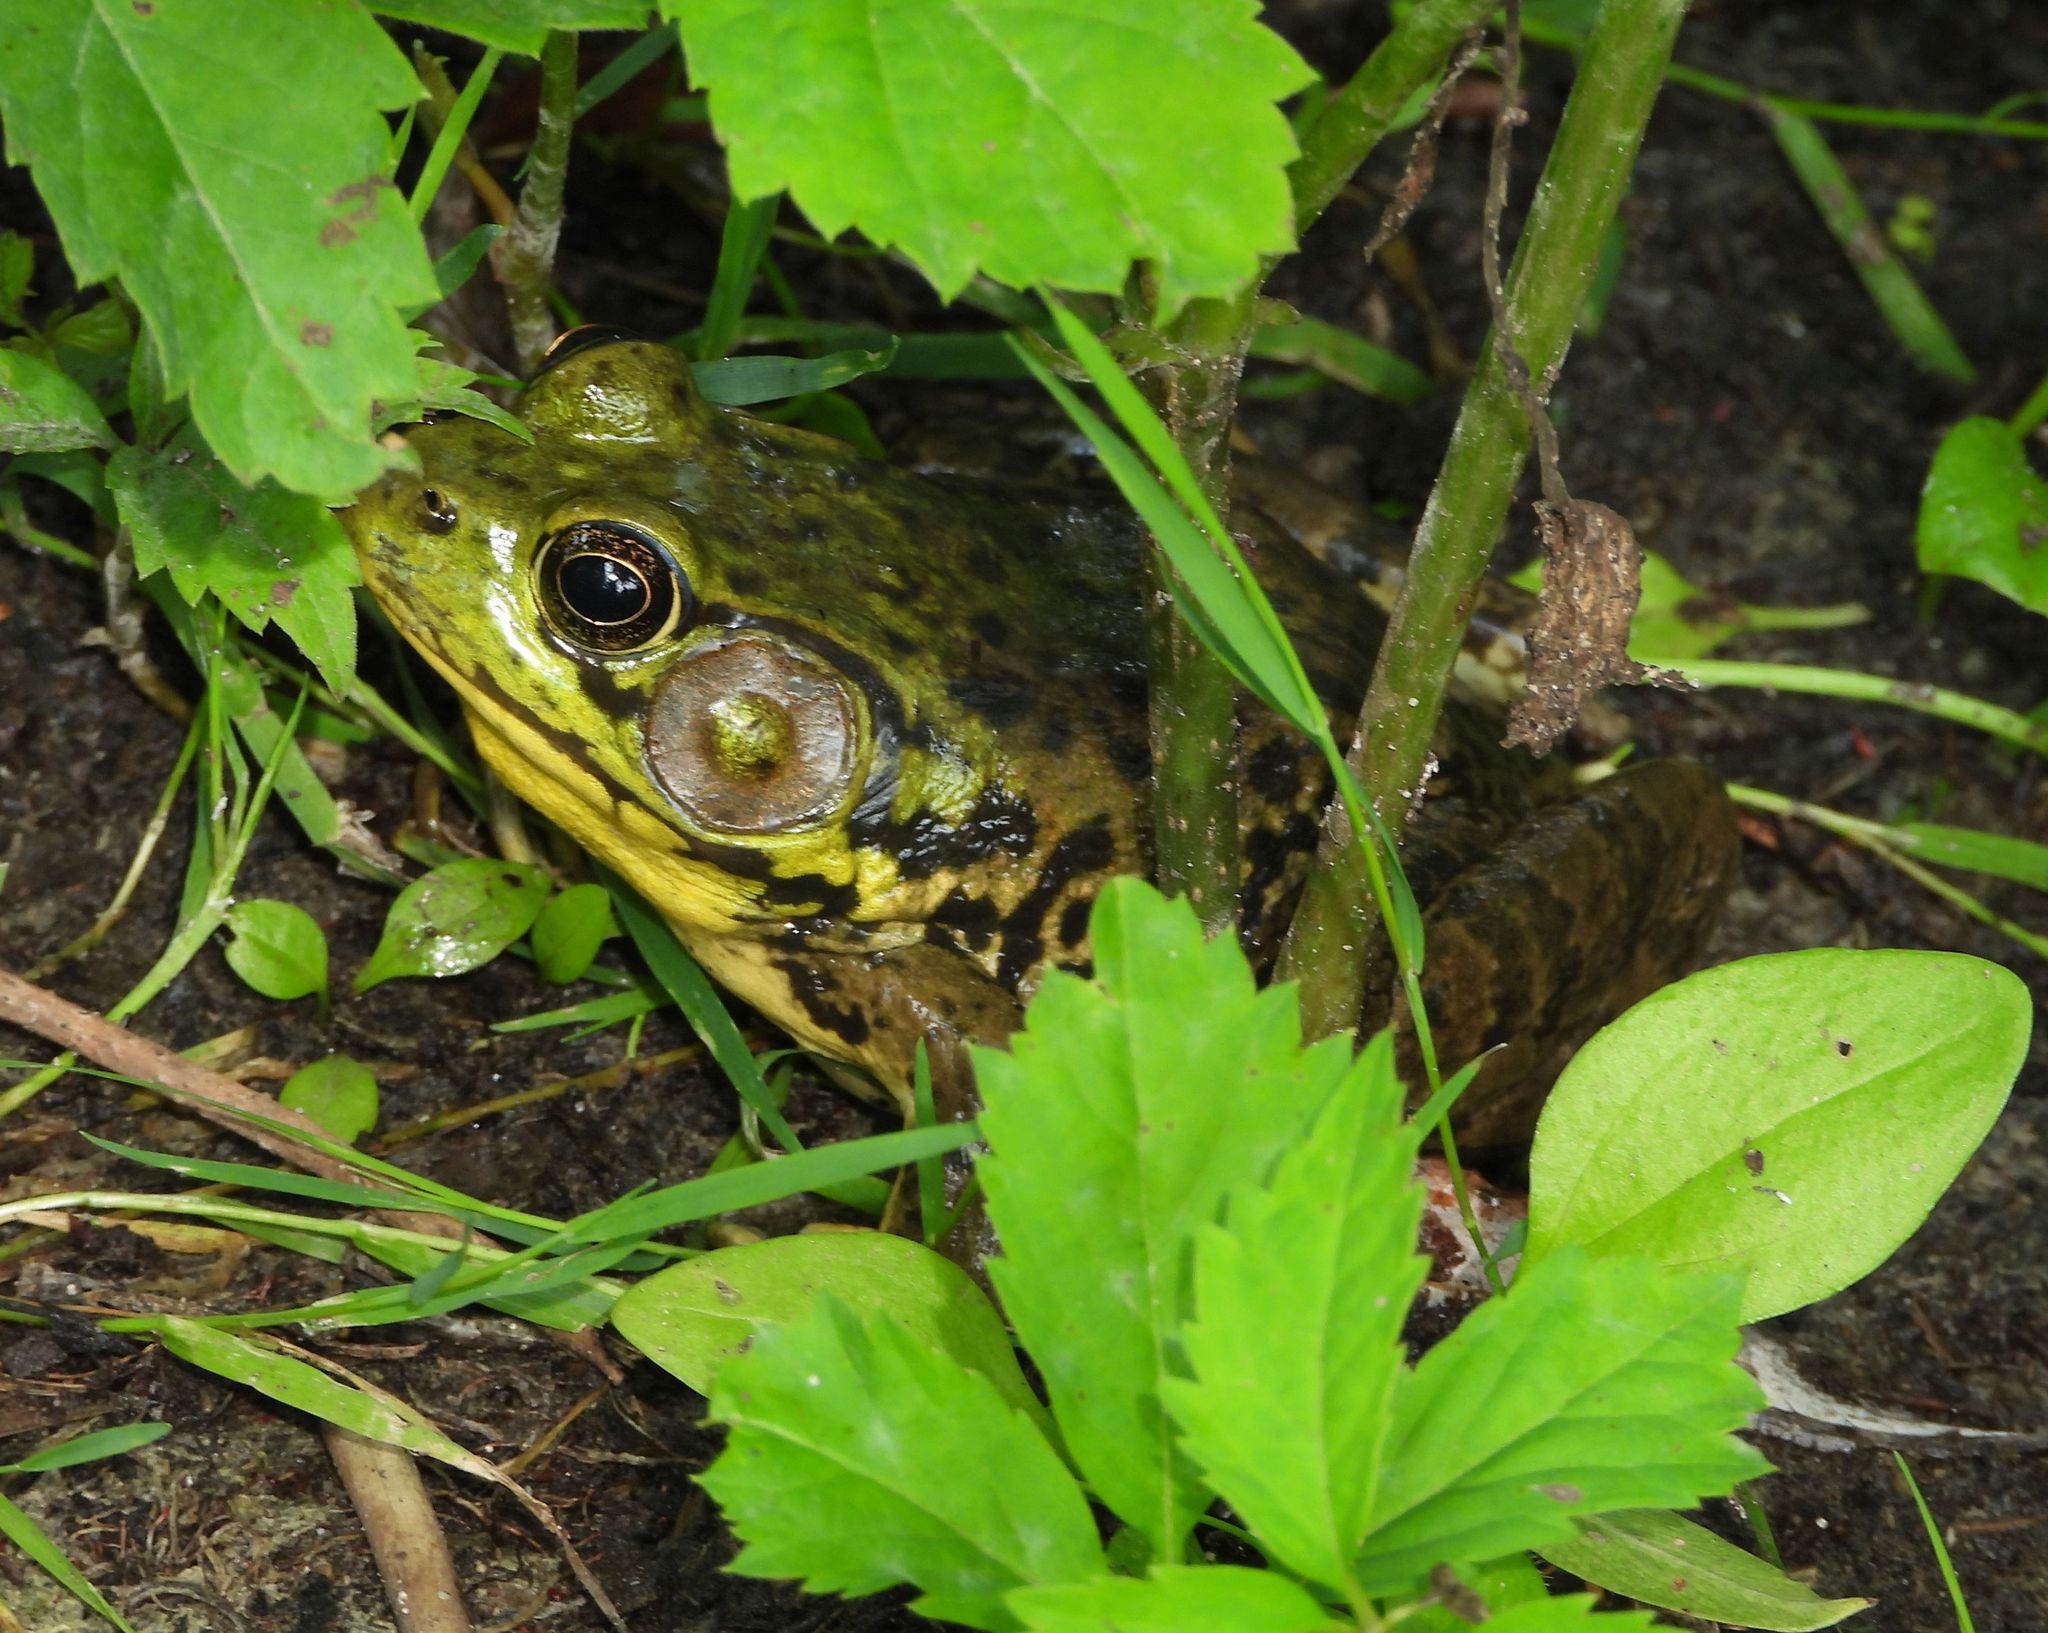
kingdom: Animalia
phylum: Chordata
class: Amphibia
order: Anura
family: Ranidae
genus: Lithobates
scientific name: Lithobates catesbeianus
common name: American bullfrog
